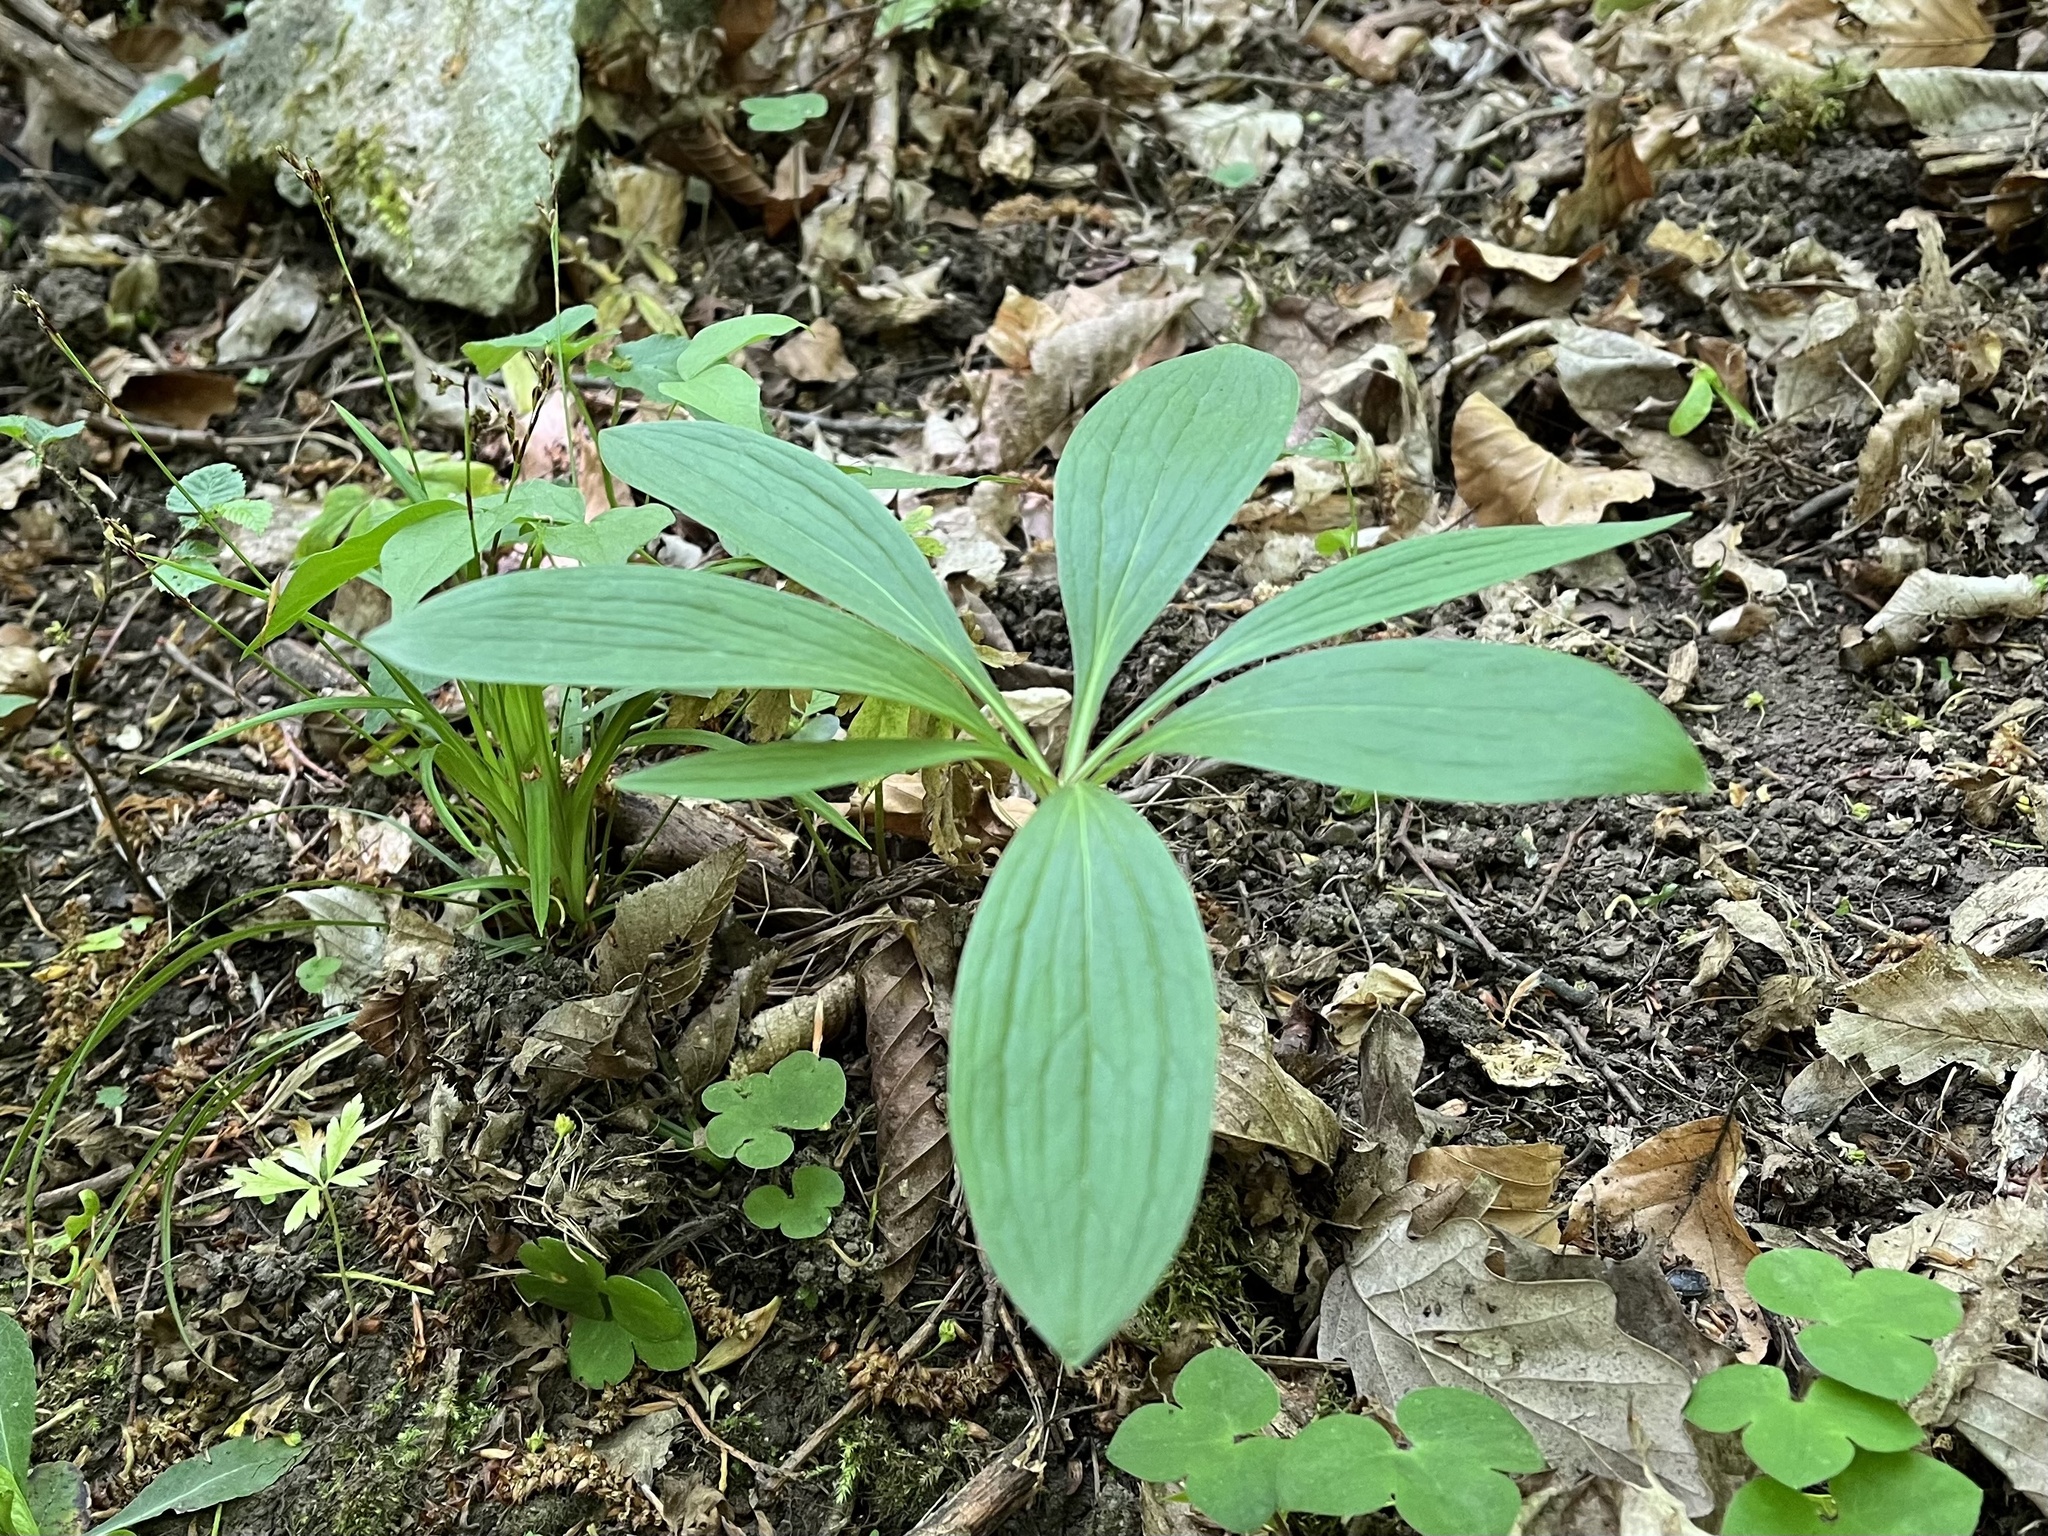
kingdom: Plantae
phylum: Tracheophyta
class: Liliopsida
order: Liliales
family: Liliaceae
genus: Lilium
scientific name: Lilium martagon
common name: Martagon lily
